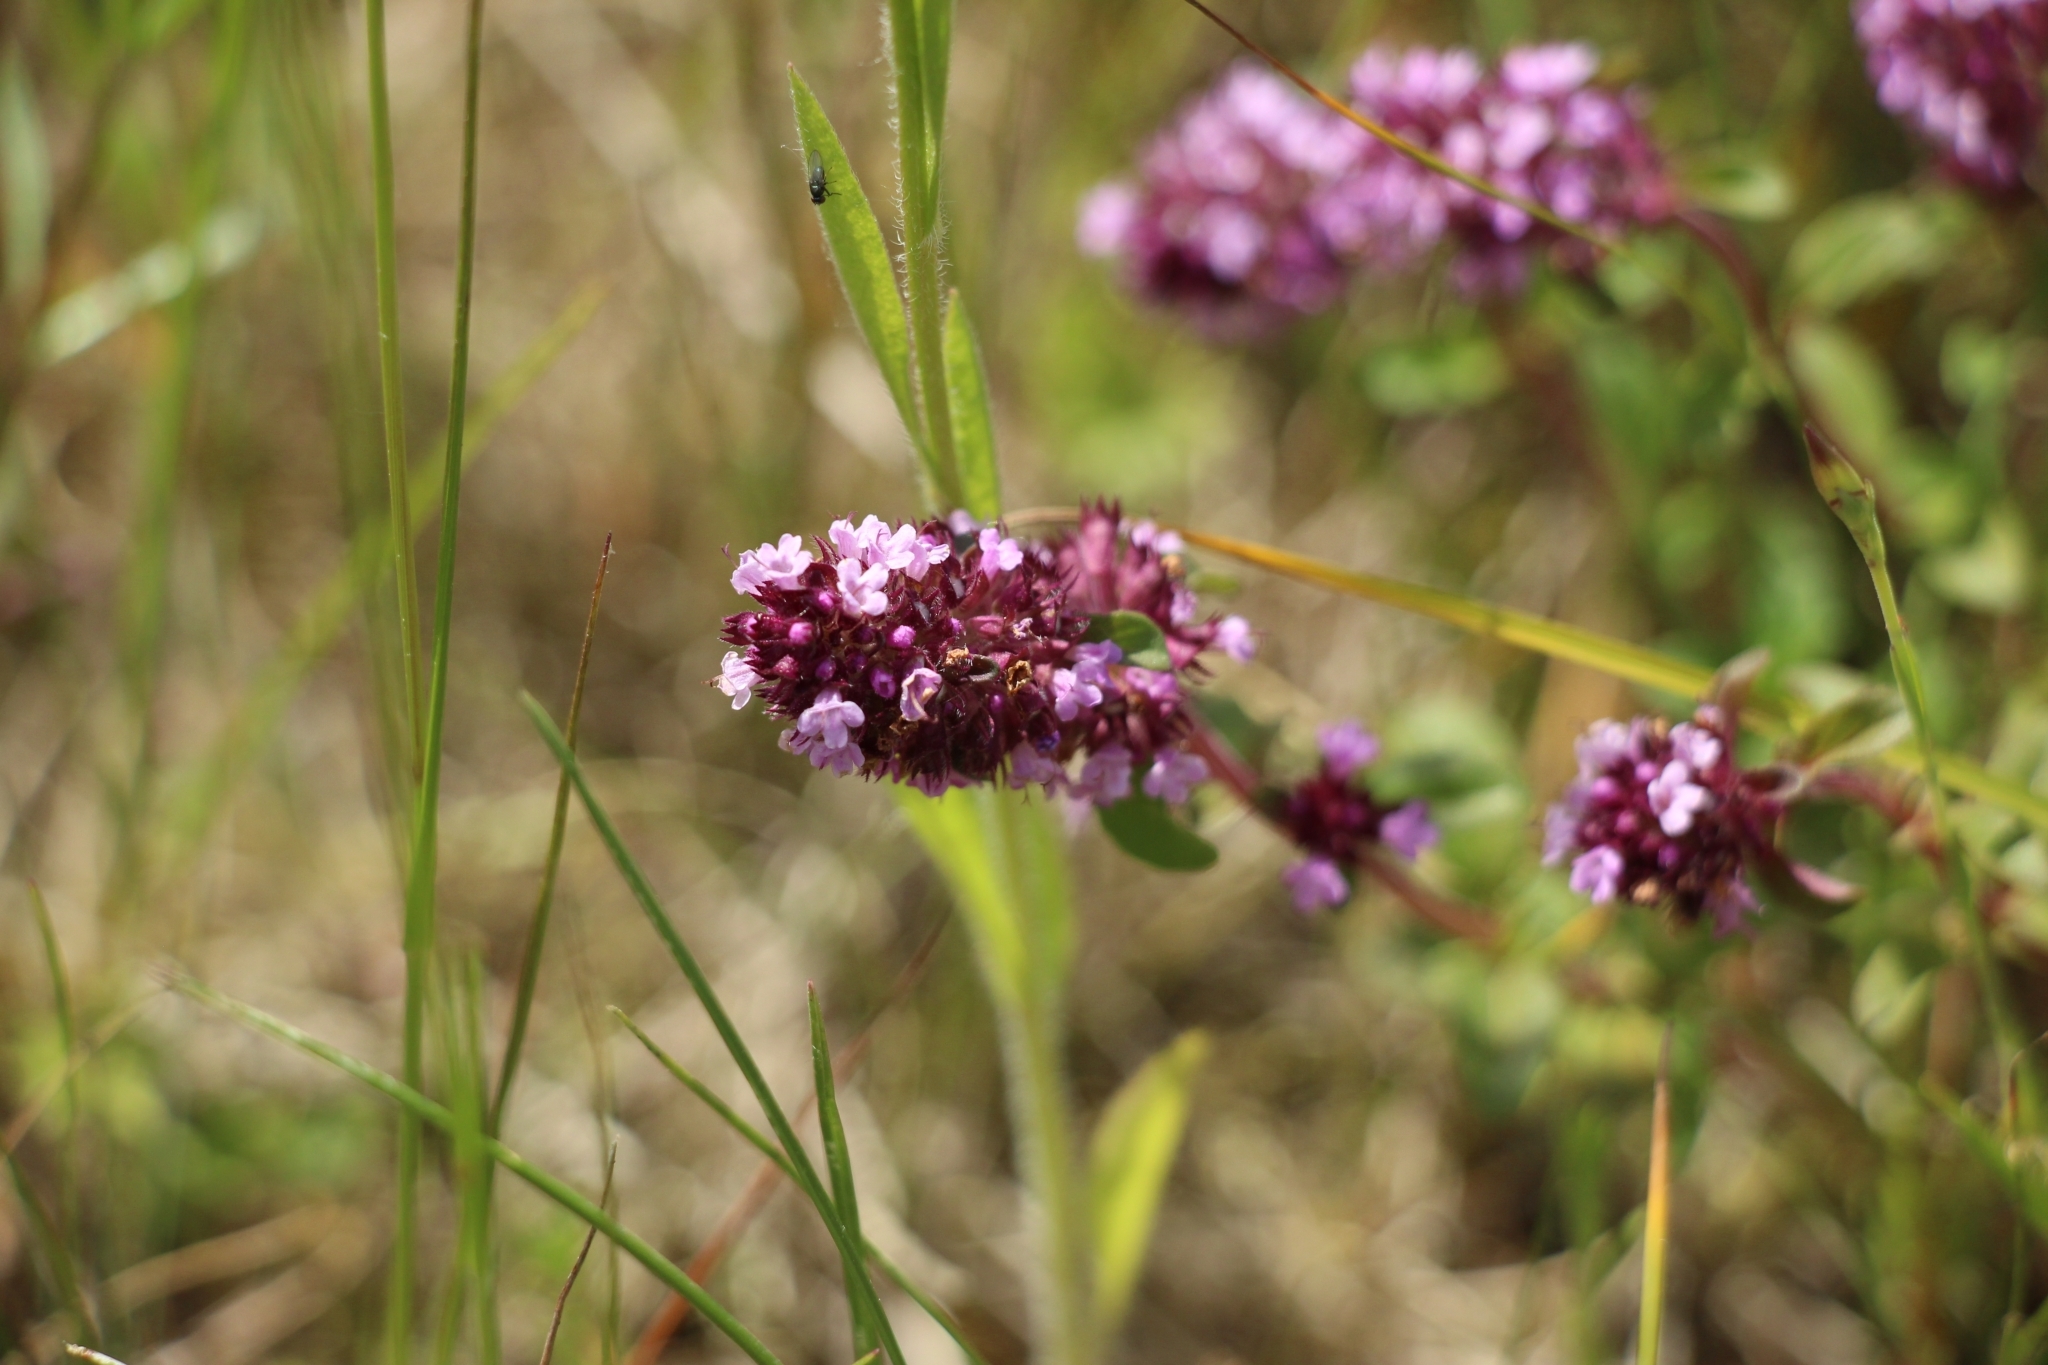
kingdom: Plantae
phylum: Tracheophyta
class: Magnoliopsida
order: Lamiales
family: Lamiaceae
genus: Thymus
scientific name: Thymus pulegioides
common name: Large thyme
